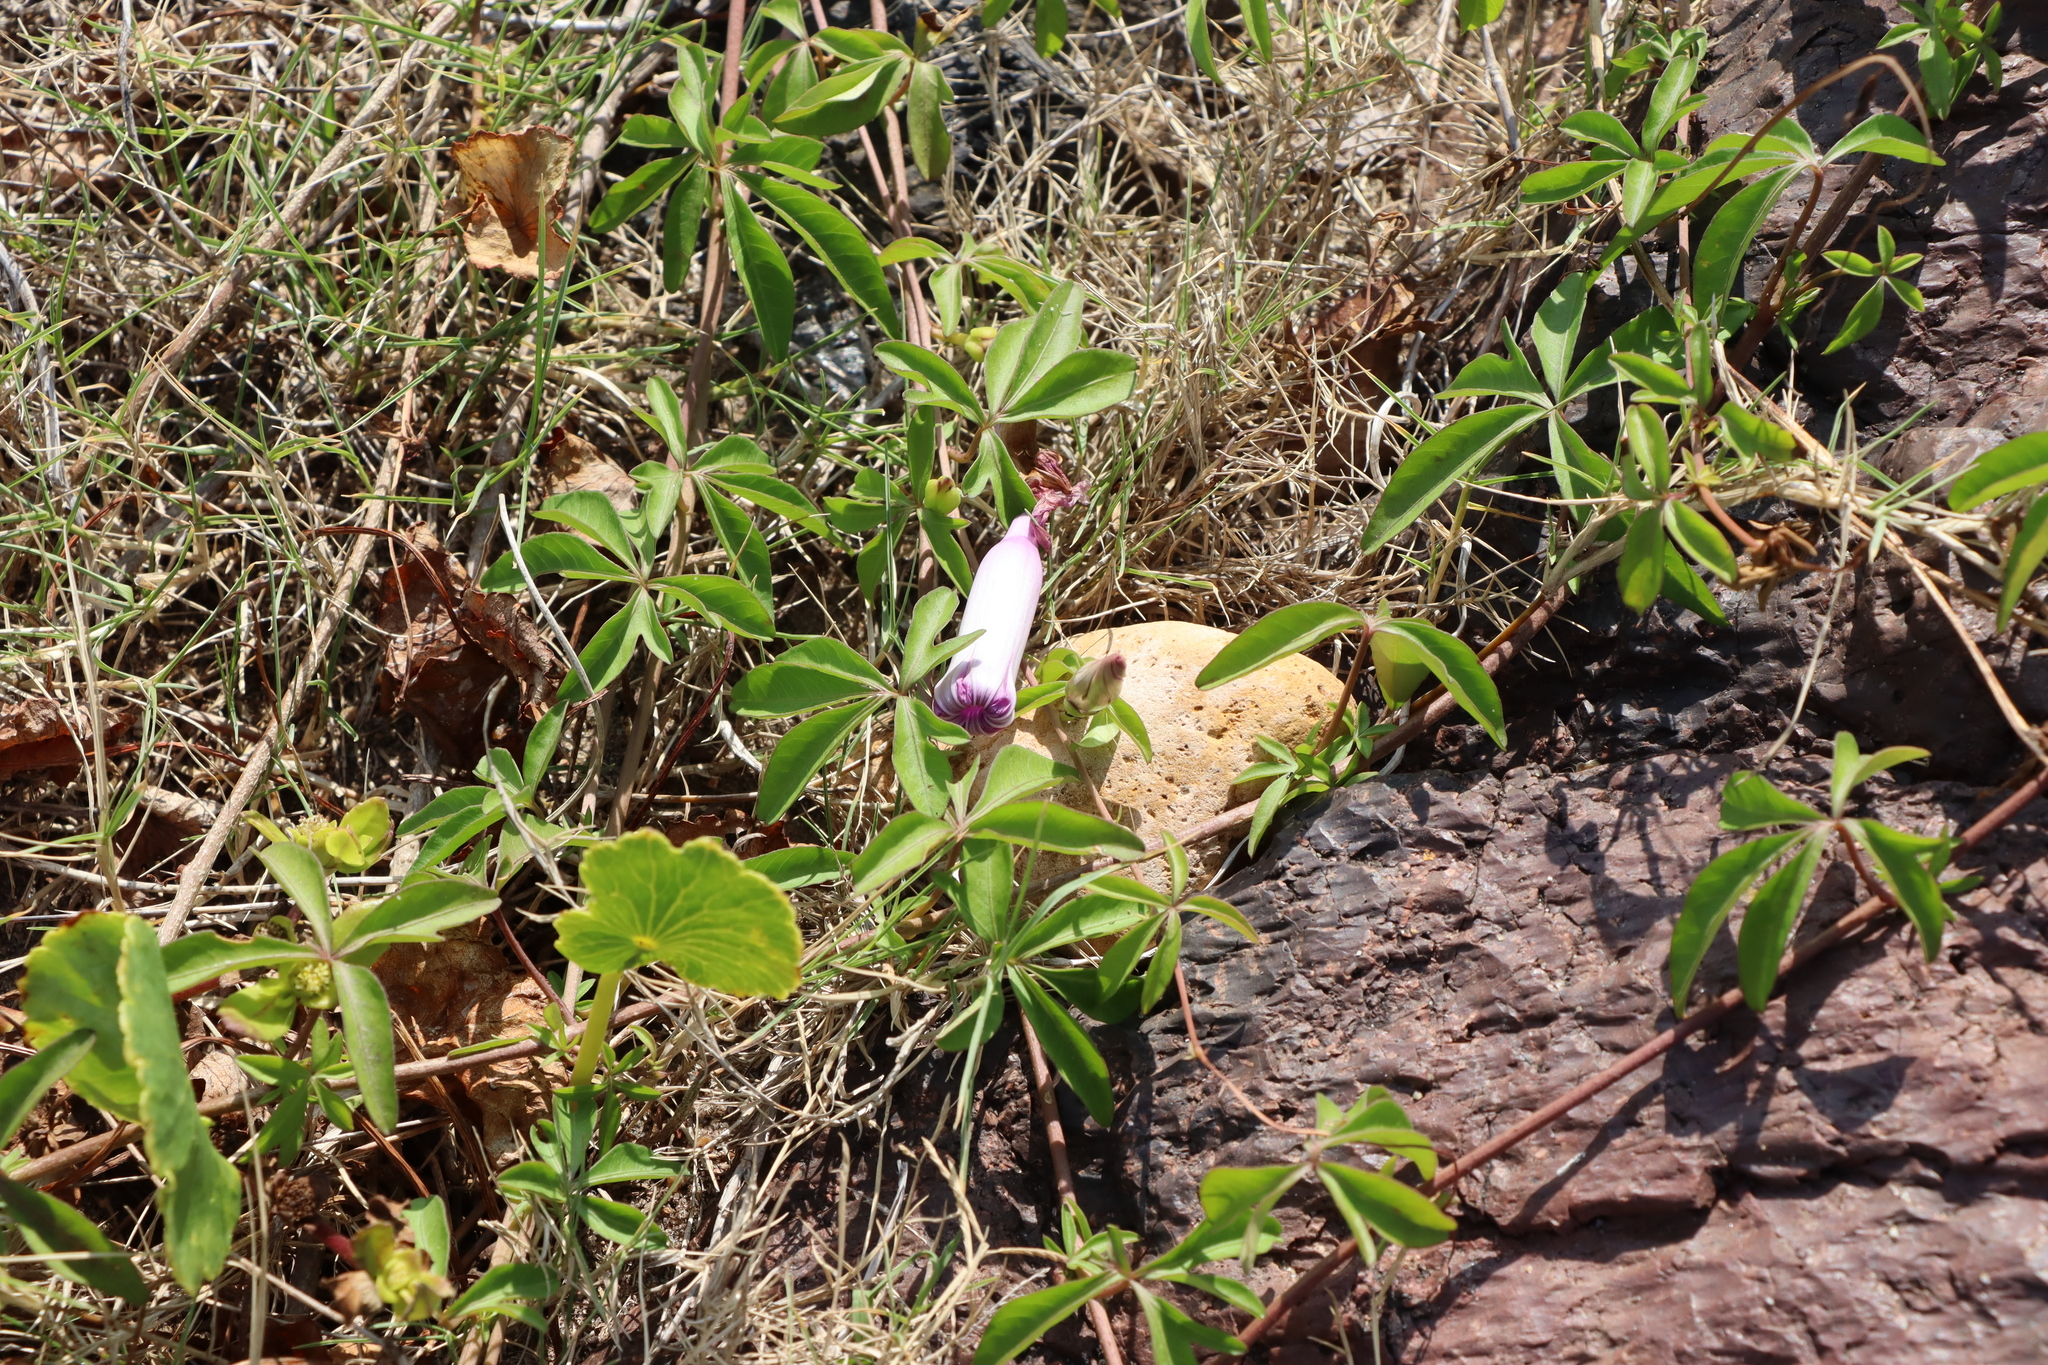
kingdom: Plantae
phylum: Tracheophyta
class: Magnoliopsida
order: Solanales
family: Convolvulaceae
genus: Ipomoea
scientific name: Ipomoea cairica
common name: Mile a minute vine
